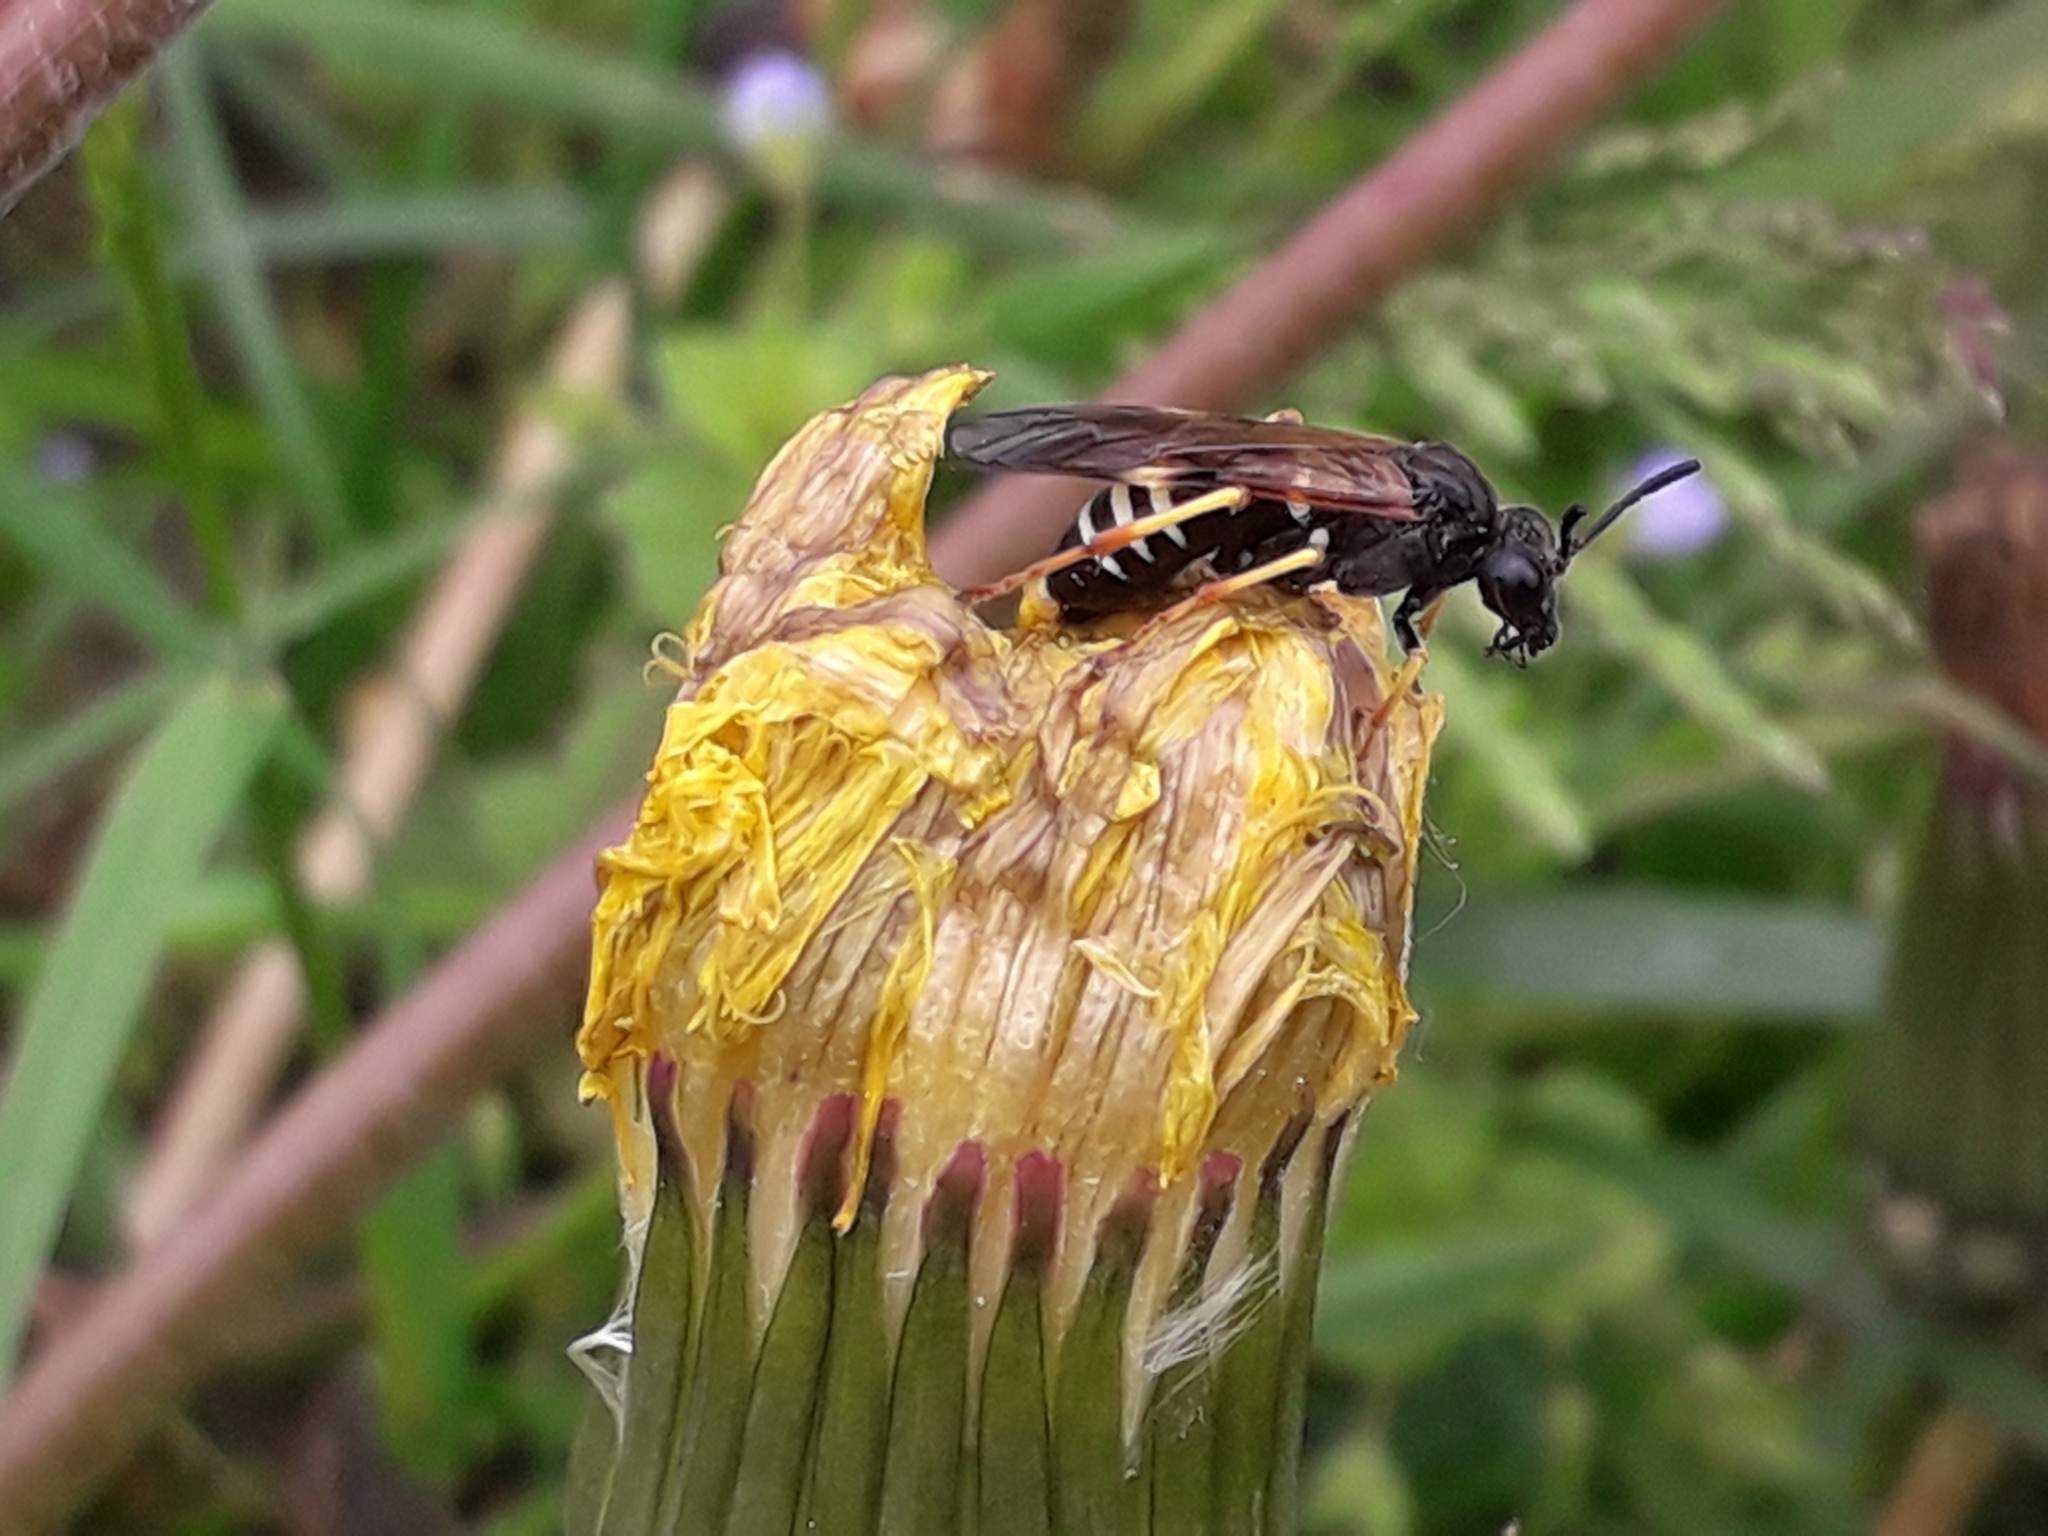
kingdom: Animalia
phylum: Arthropoda
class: Insecta
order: Hymenoptera
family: Tenthredinidae
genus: Tenthredo
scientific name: Tenthredo koehleri
